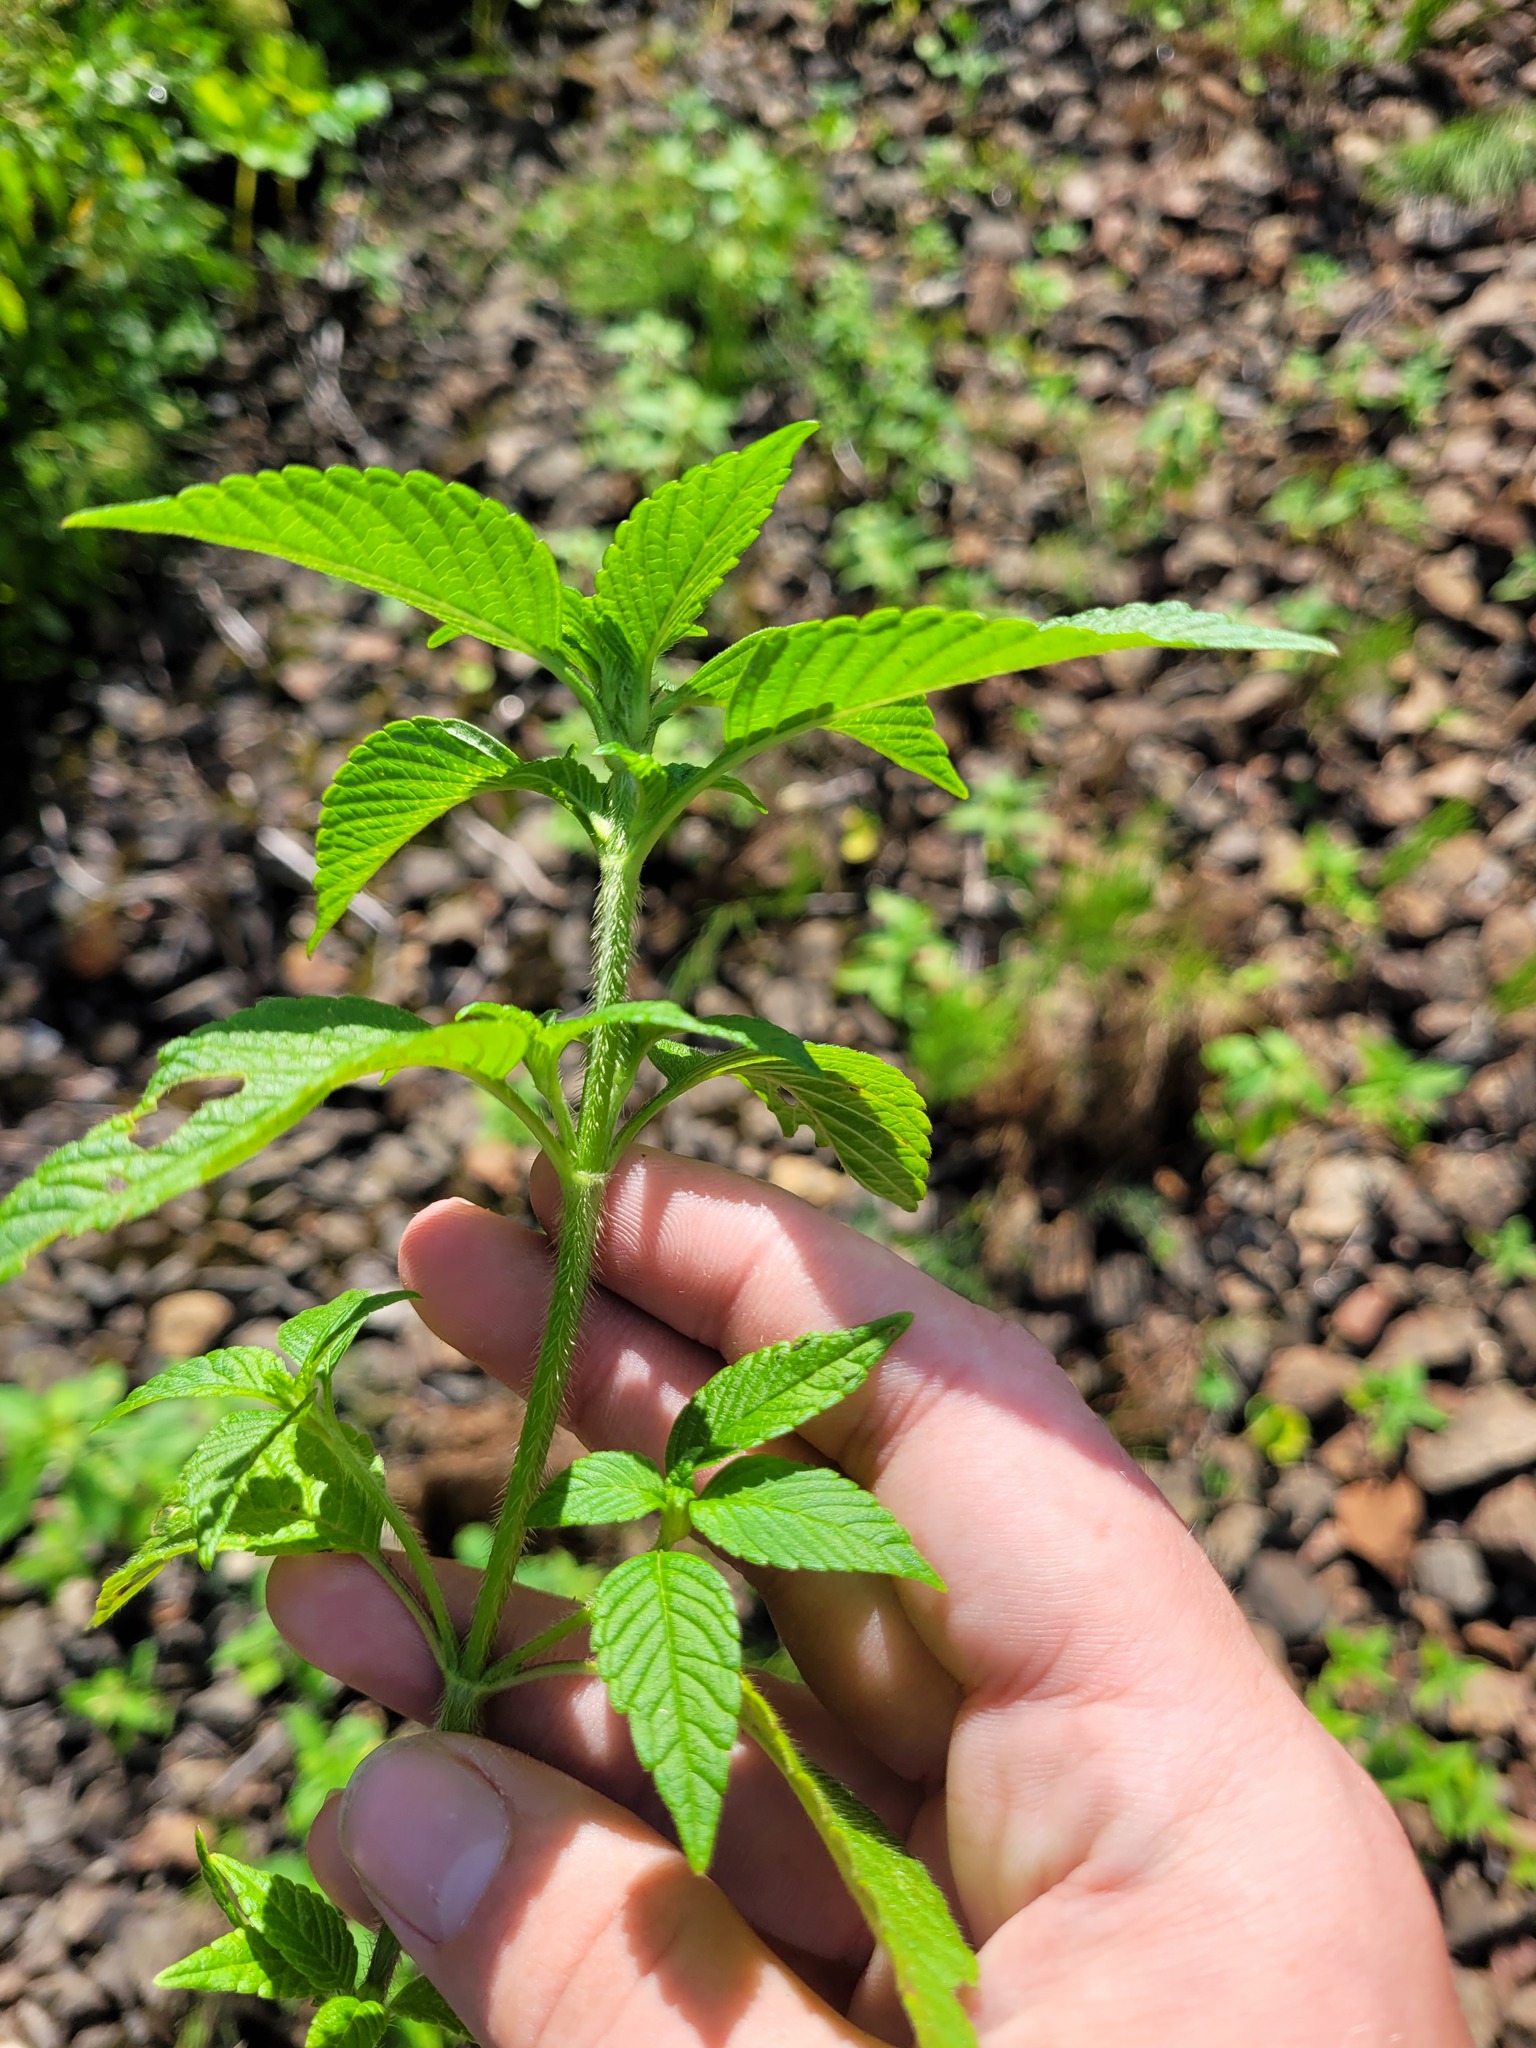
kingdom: Plantae
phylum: Tracheophyta
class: Magnoliopsida
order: Lamiales
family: Lamiaceae
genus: Galeopsis
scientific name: Galeopsis bifida
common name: Bifid hemp-nettle
